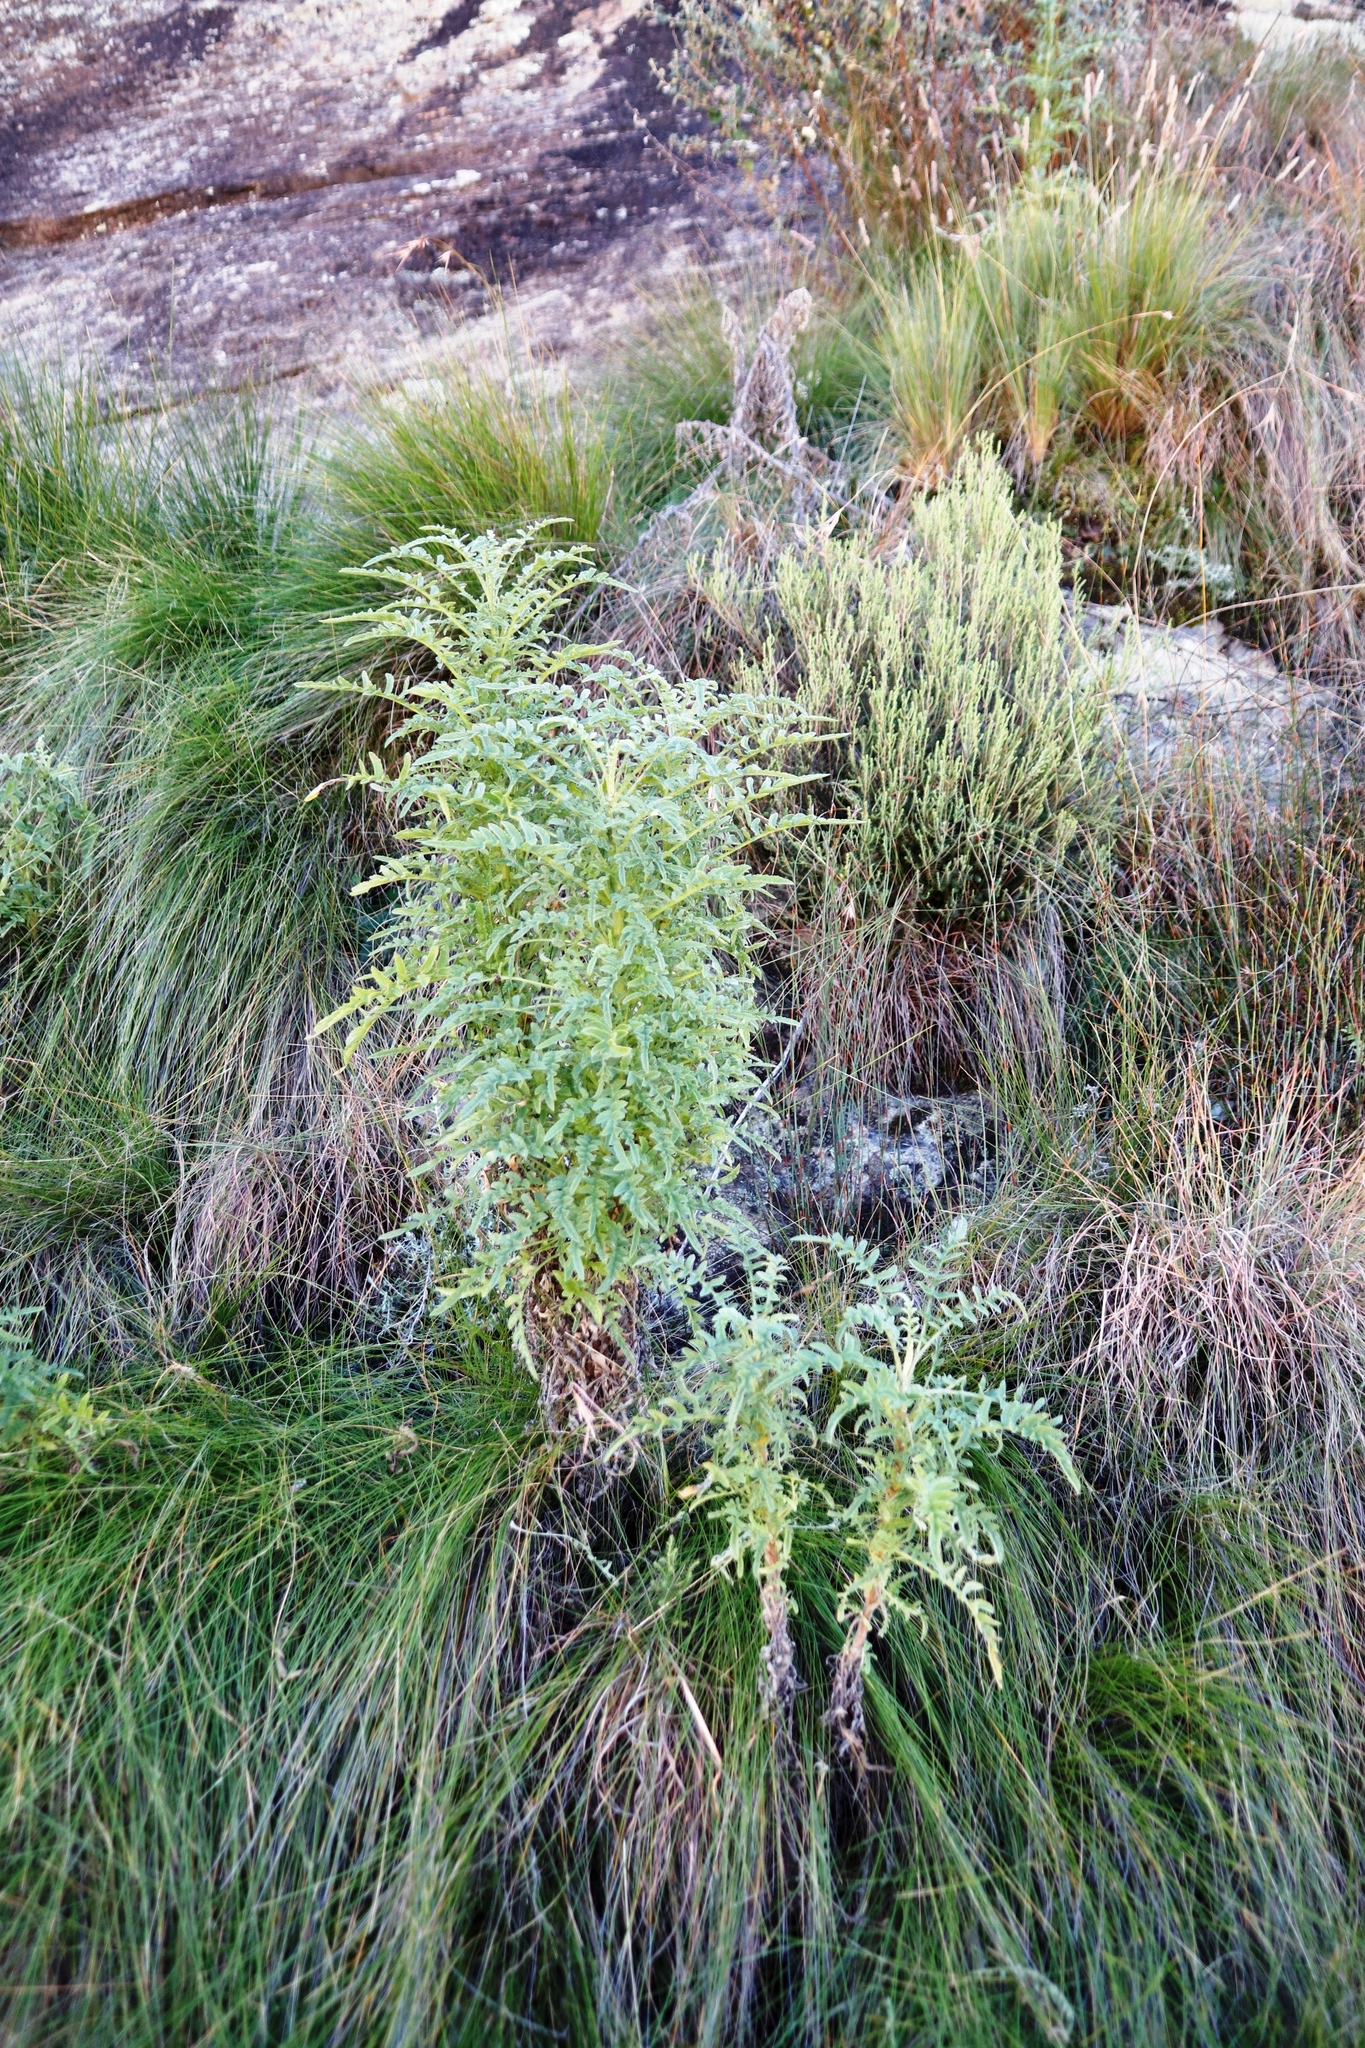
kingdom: Plantae
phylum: Tracheophyta
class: Magnoliopsida
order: Asterales
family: Asteraceae
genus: Heteromma
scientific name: Heteromma decurrens
